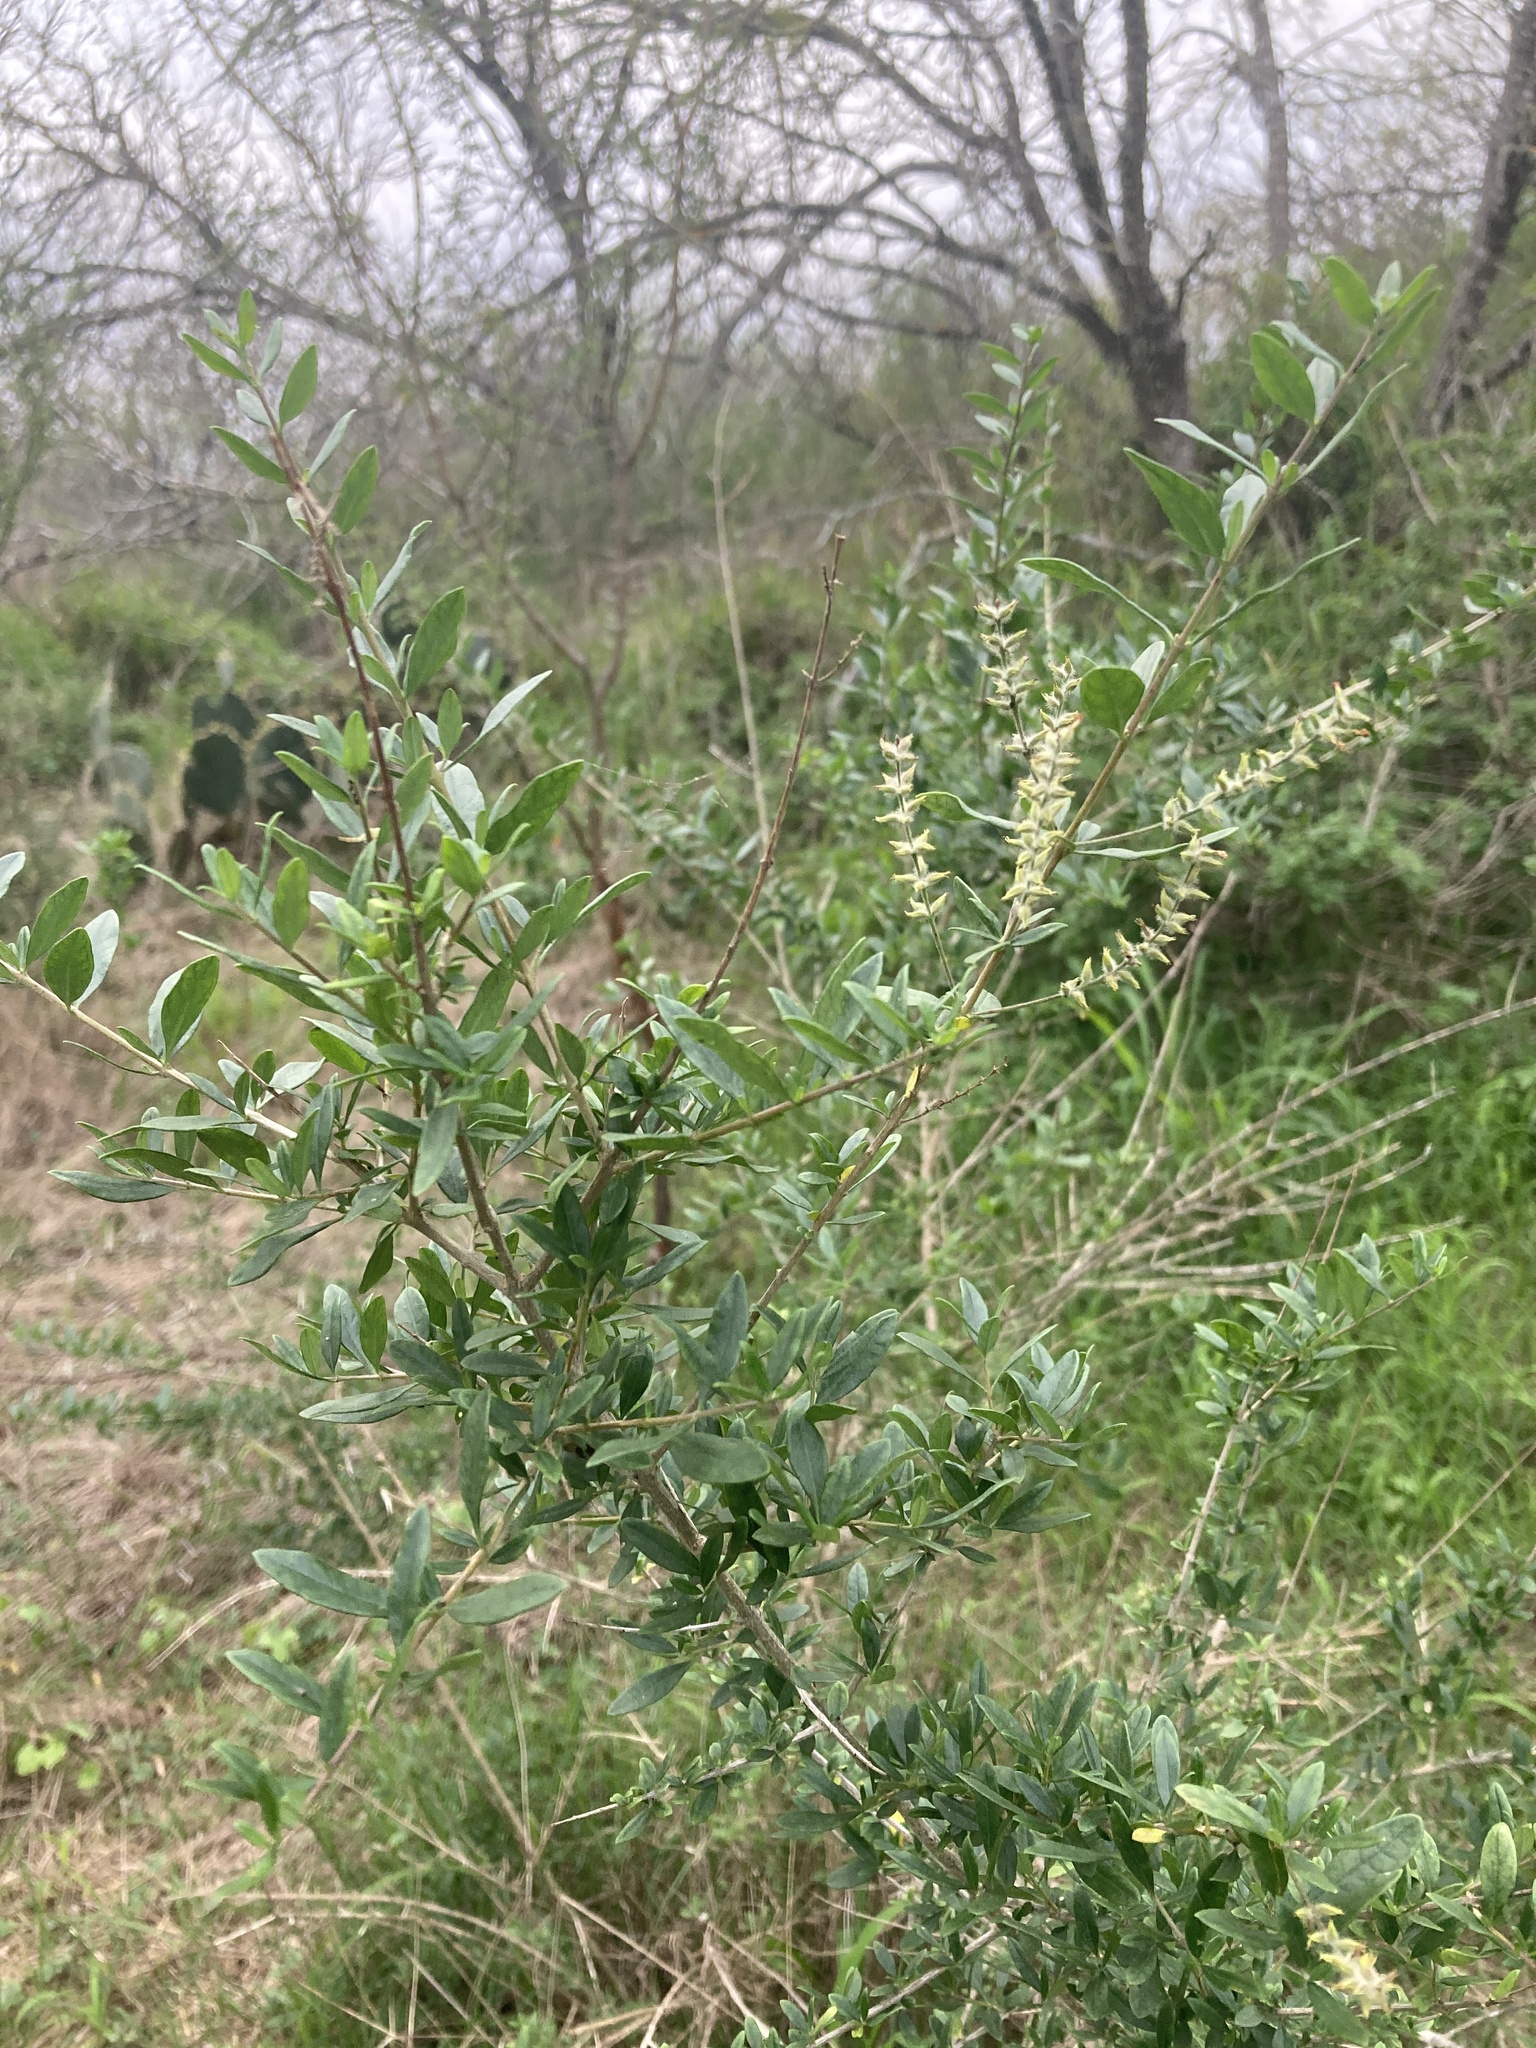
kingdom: Plantae
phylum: Tracheophyta
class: Magnoliopsida
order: Lamiales
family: Verbenaceae
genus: Aloysia
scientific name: Aloysia gratissima
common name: Common bee-brush
